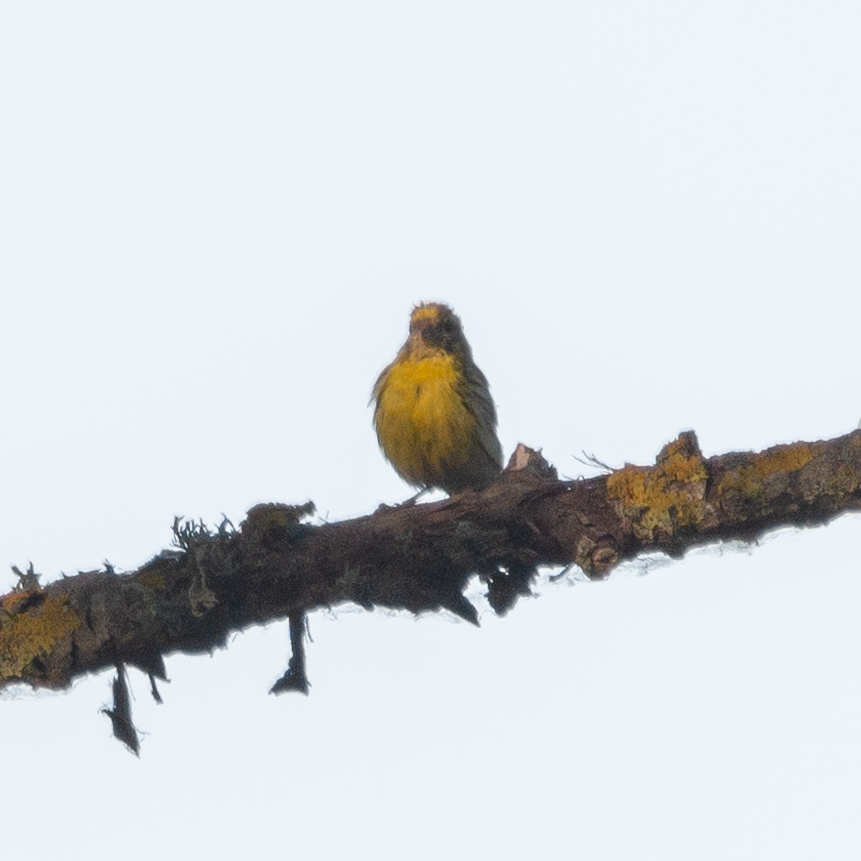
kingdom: Animalia
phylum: Chordata
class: Aves
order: Passeriformes
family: Fringillidae
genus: Serinus
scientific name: Serinus serinus
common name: European serin
